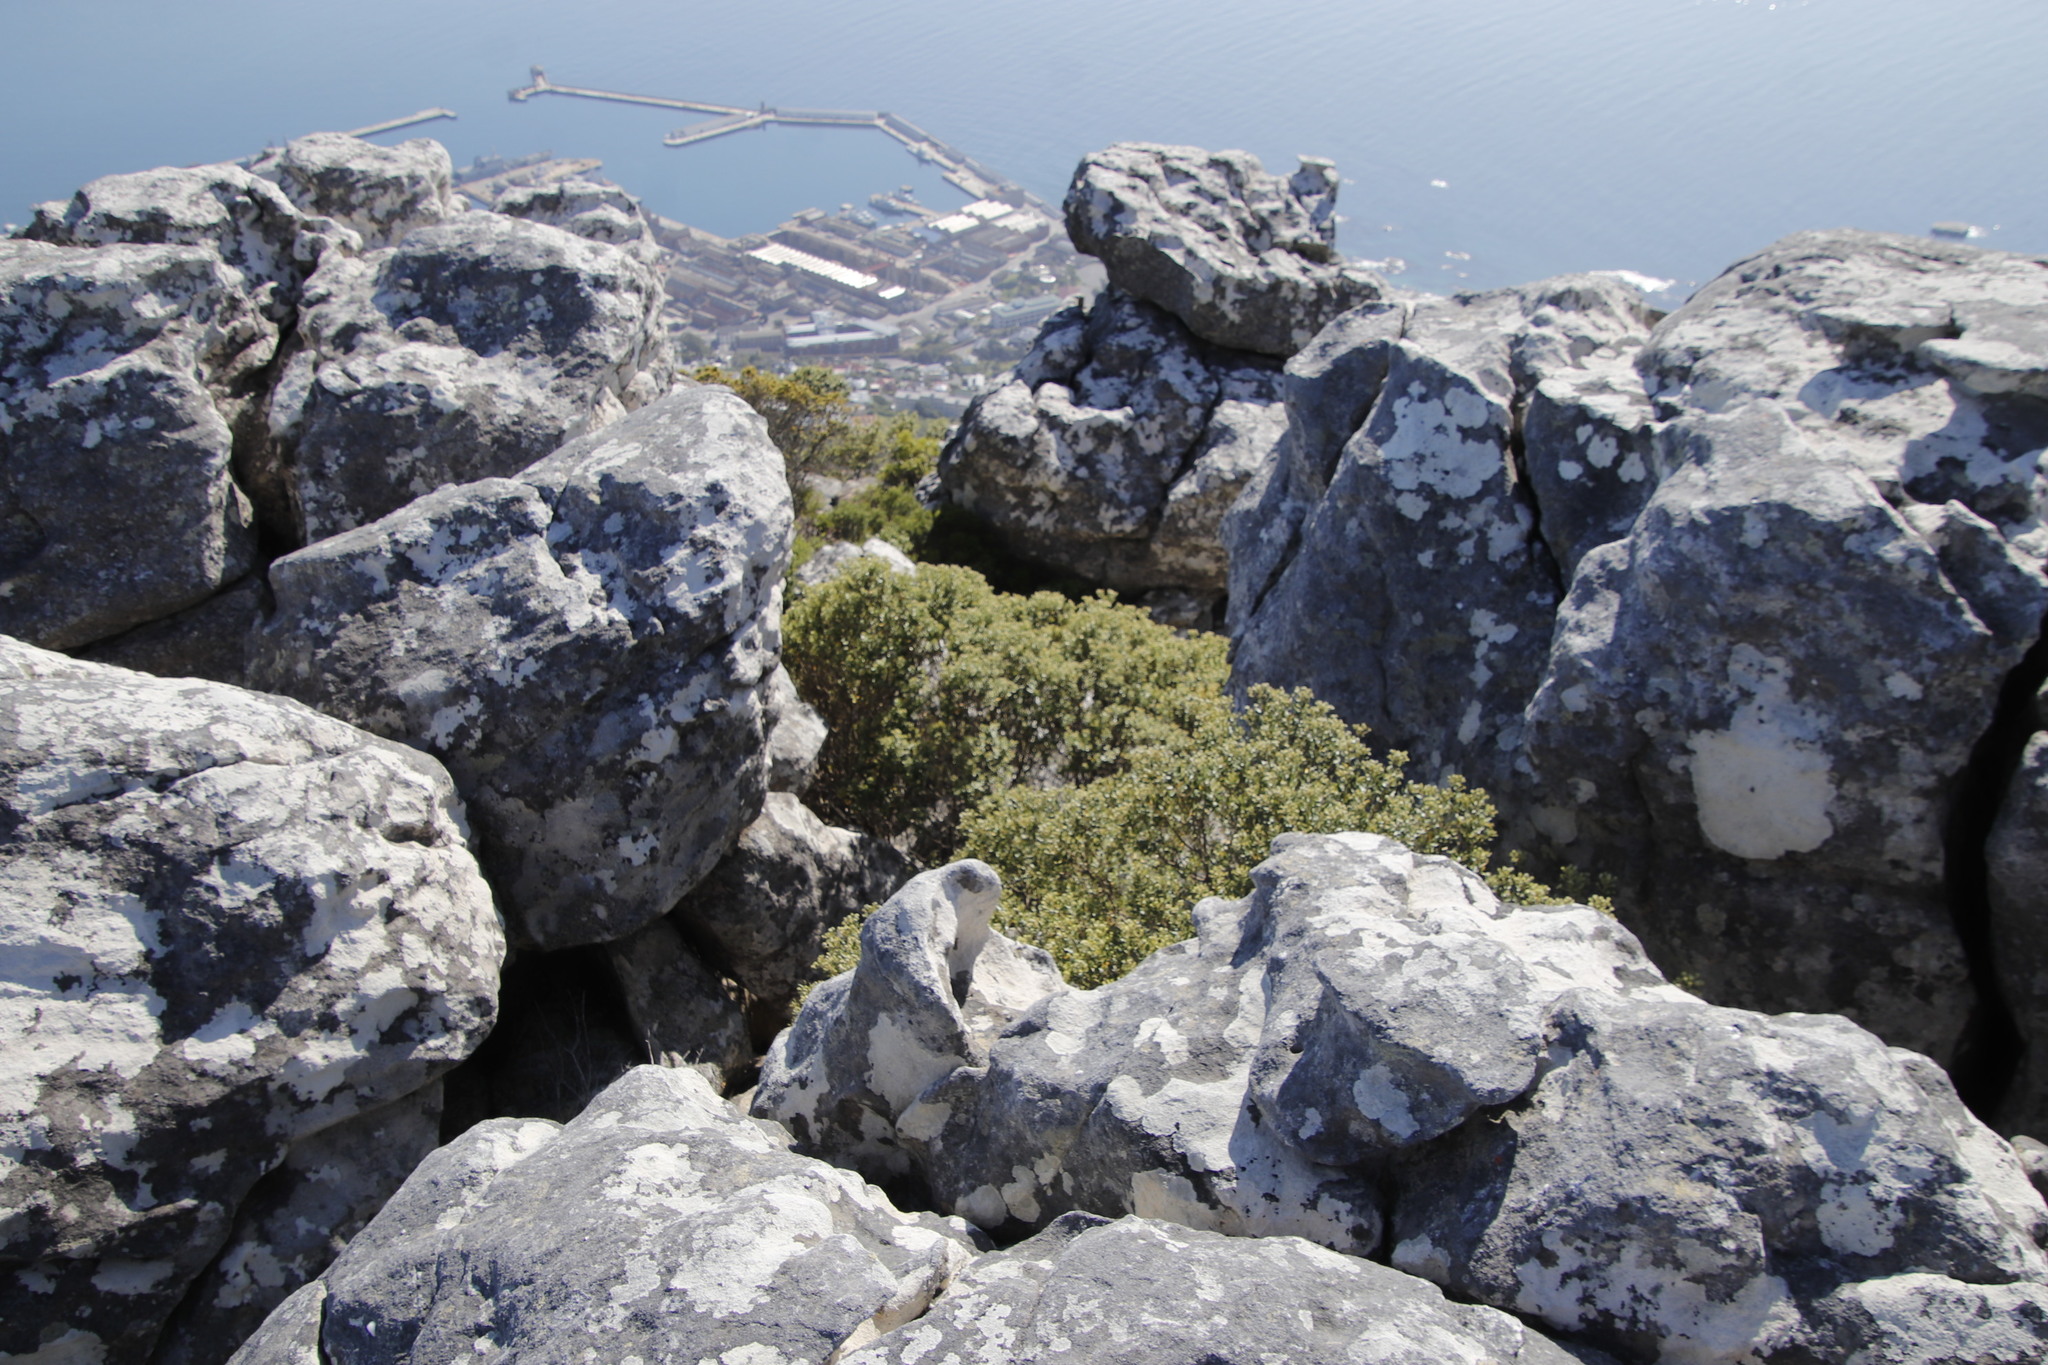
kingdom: Plantae
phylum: Tracheophyta
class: Magnoliopsida
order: Rosales
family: Rhamnaceae
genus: Phylica
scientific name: Phylica buxifolia
